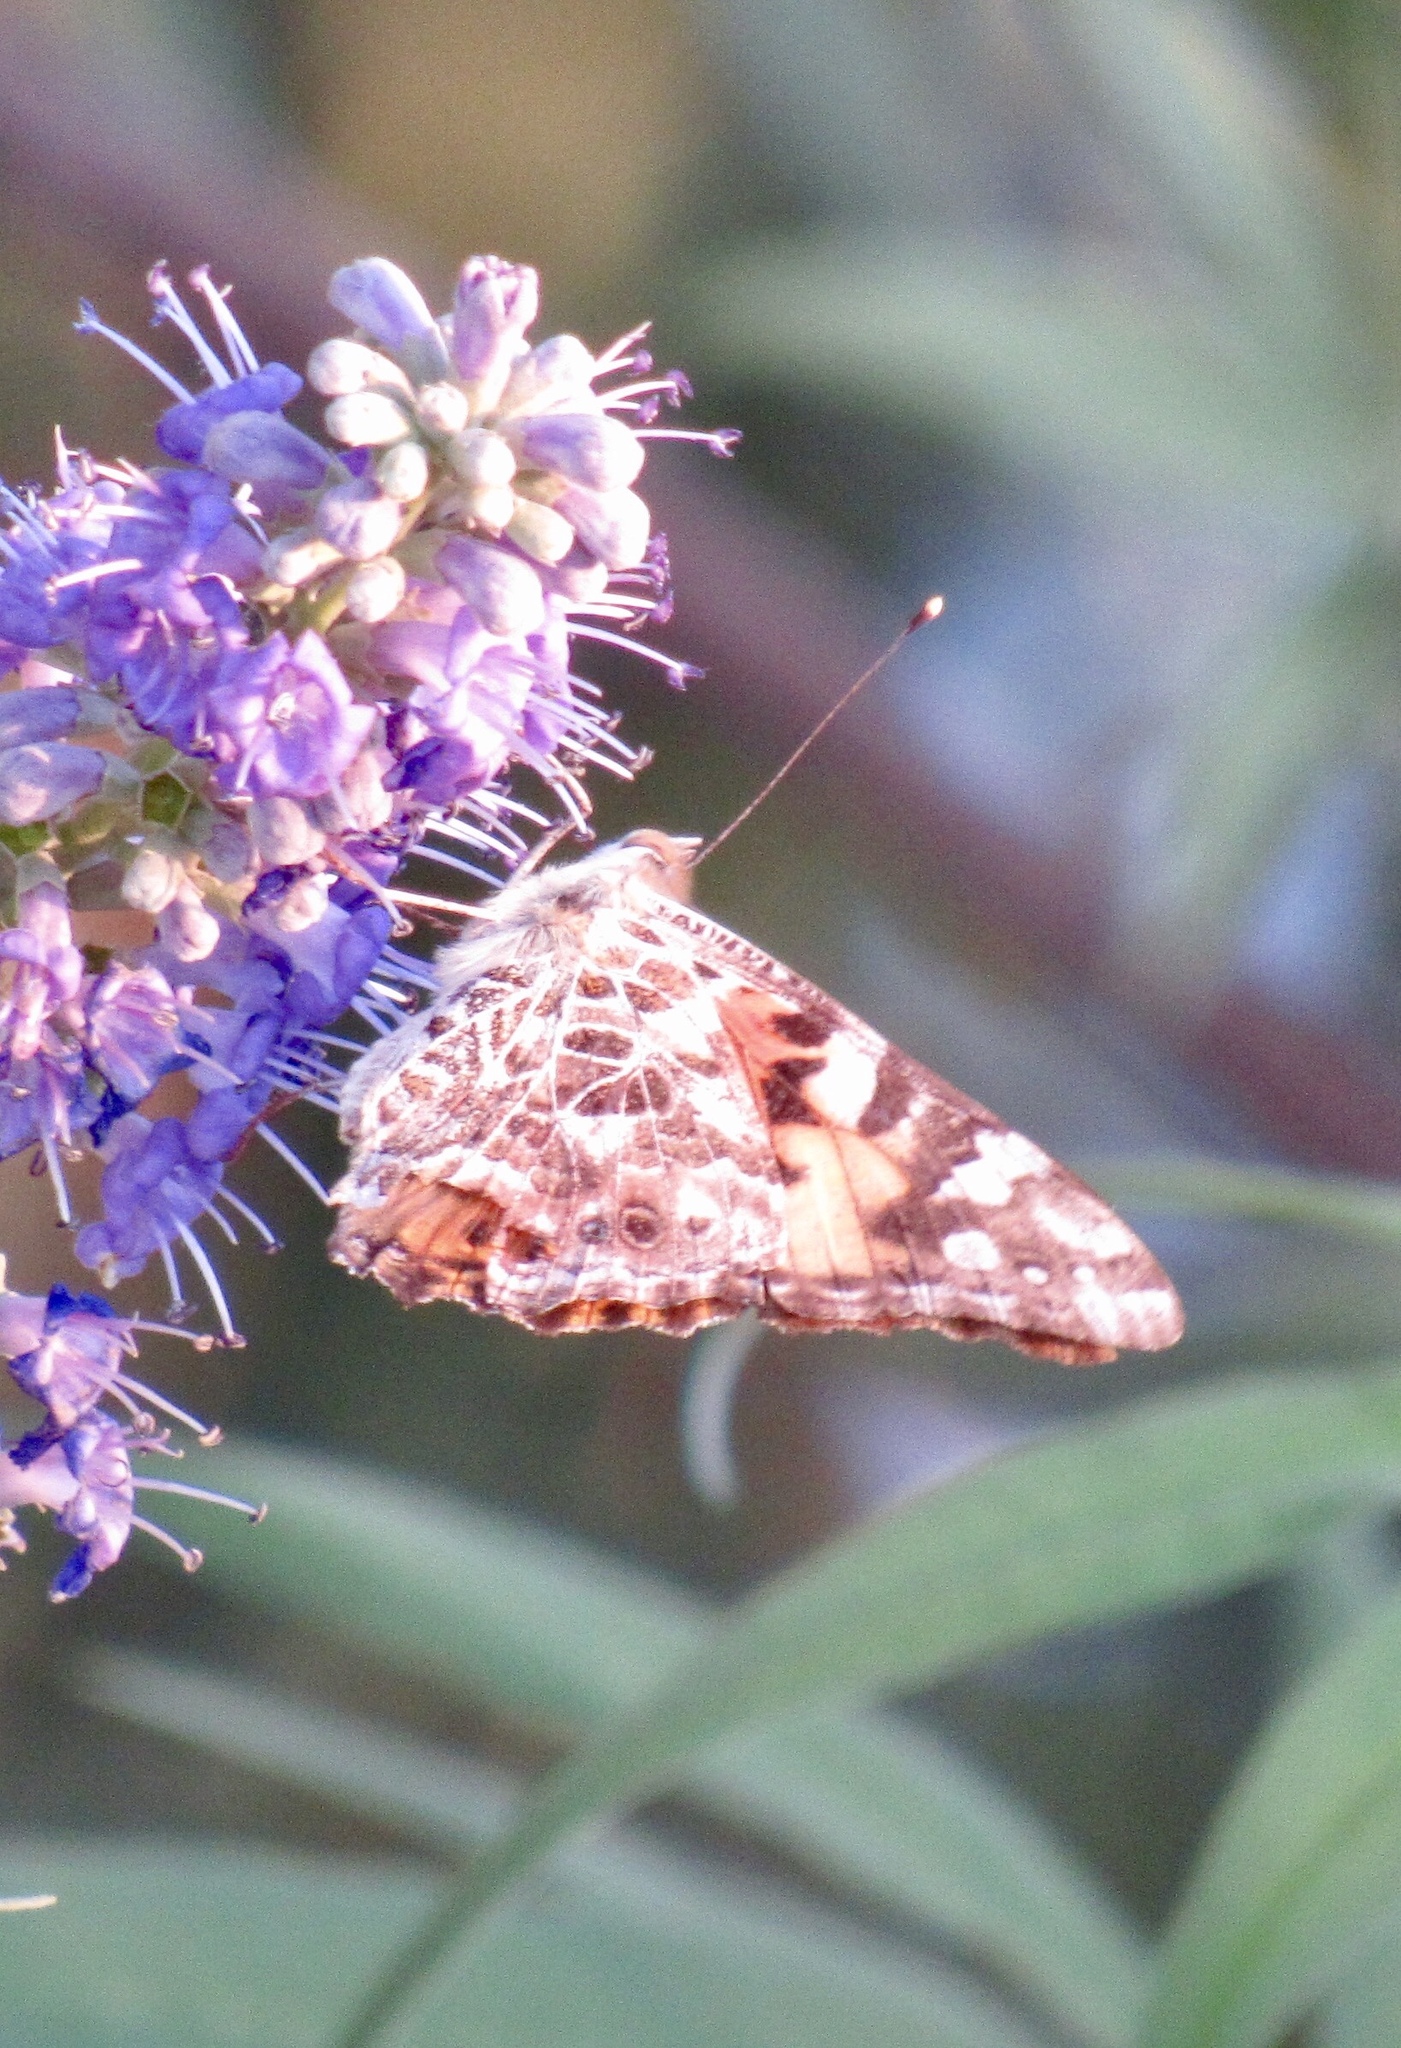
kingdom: Animalia
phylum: Arthropoda
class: Insecta
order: Lepidoptera
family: Nymphalidae
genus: Vanessa
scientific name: Vanessa cardui
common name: Painted lady
